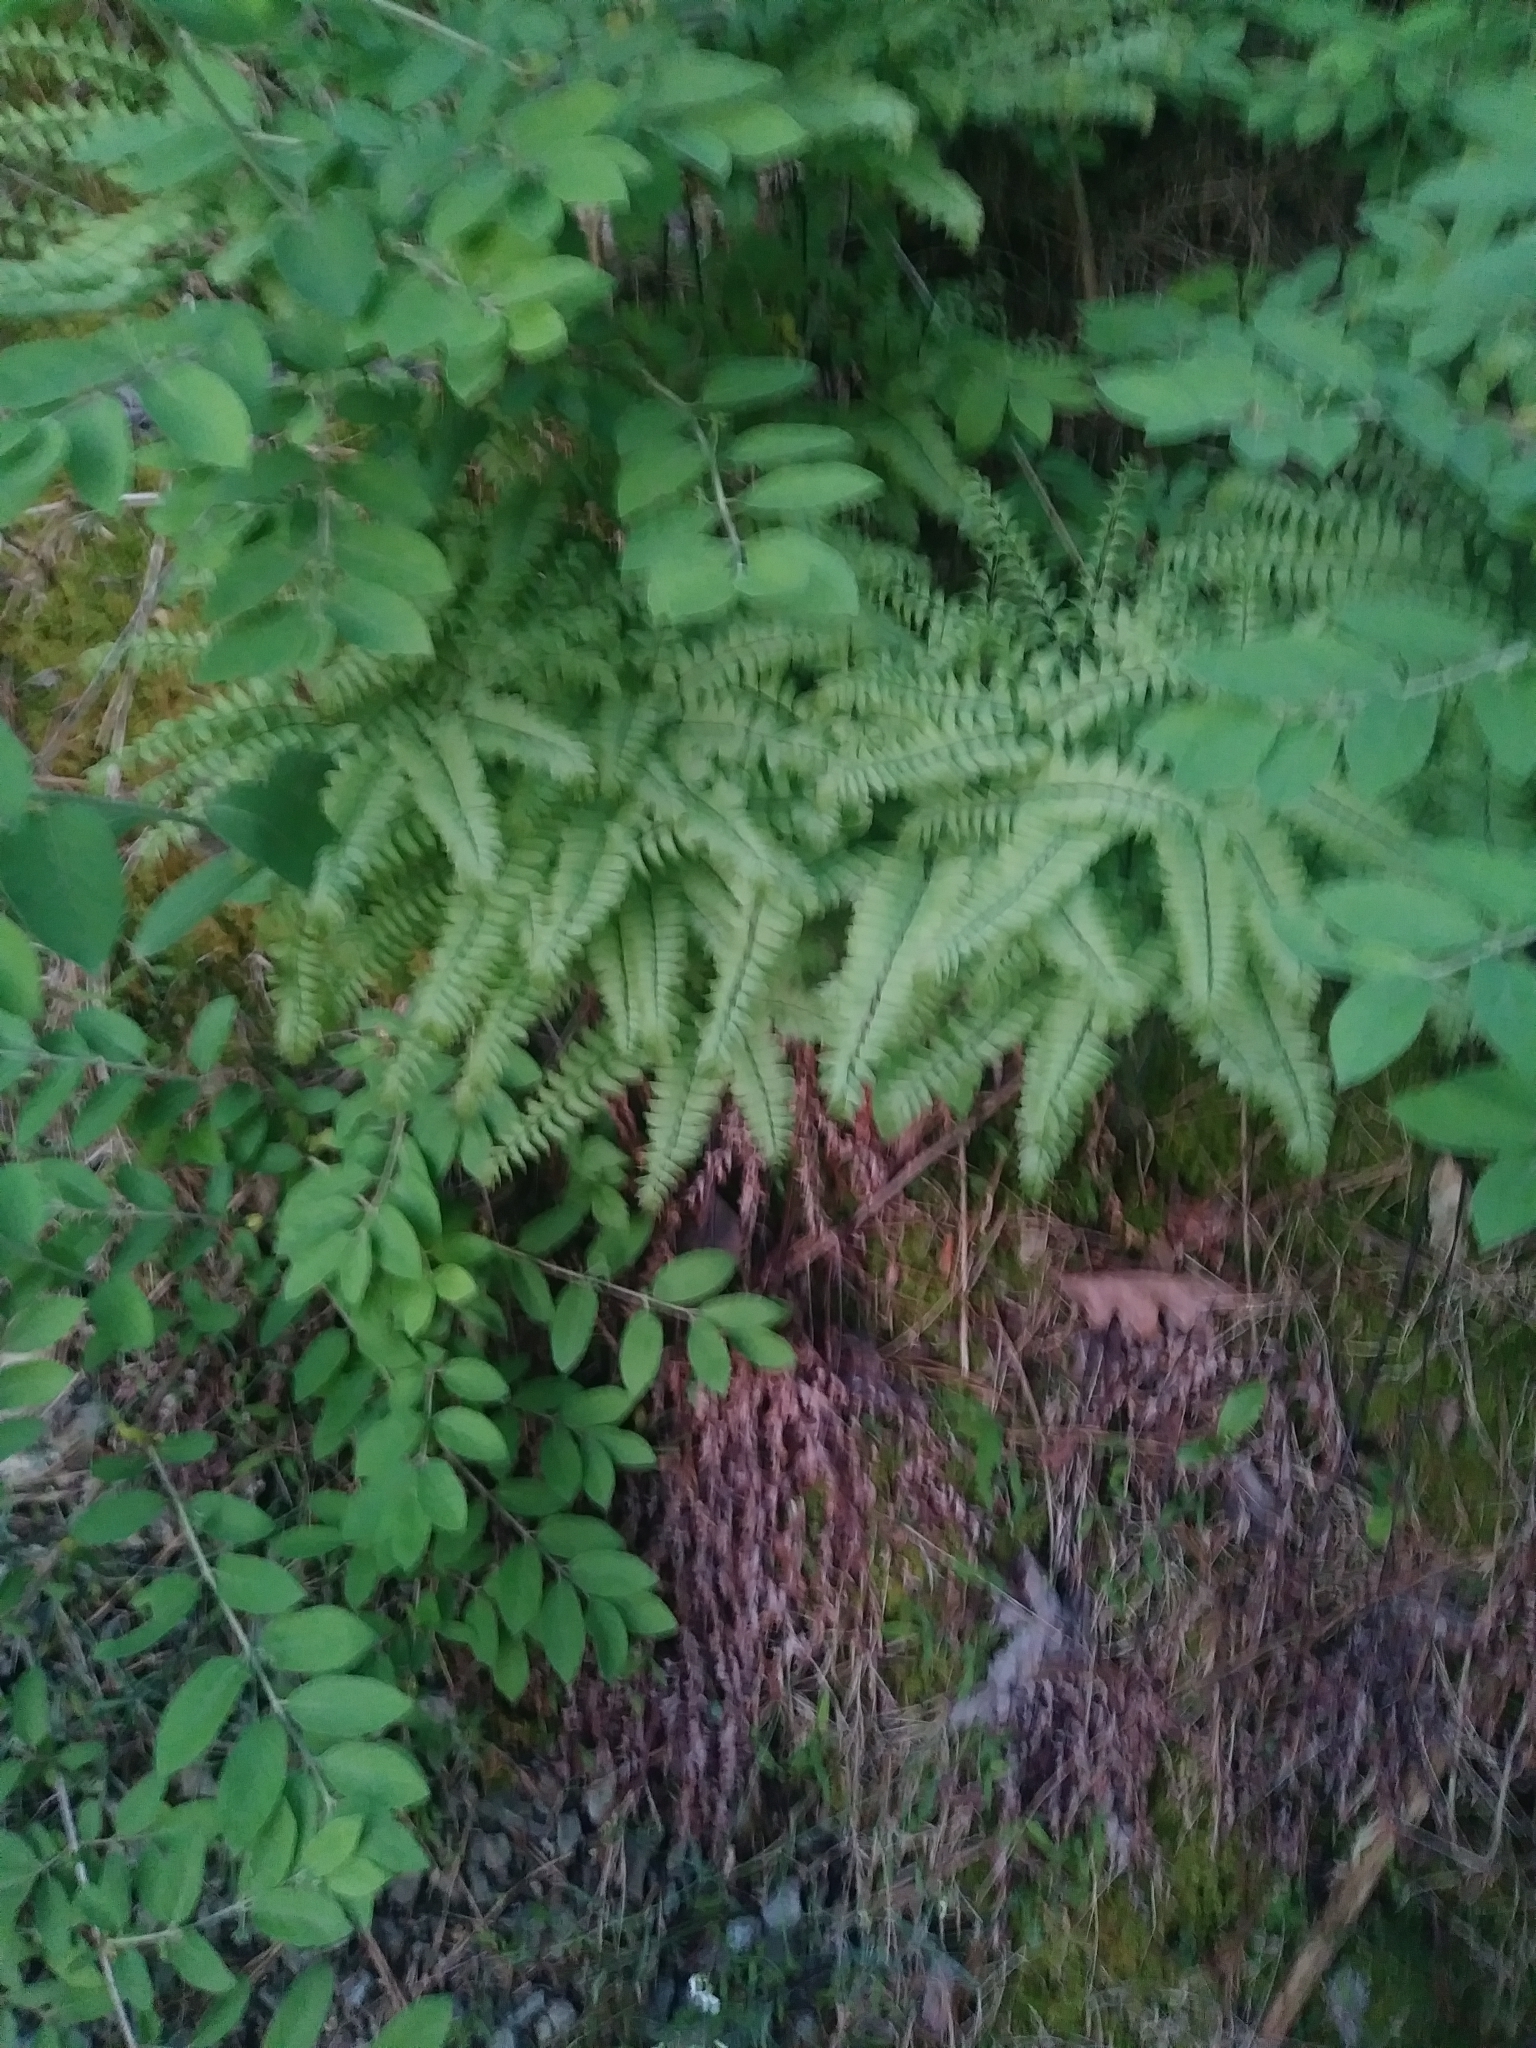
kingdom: Plantae
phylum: Tracheophyta
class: Polypodiopsida
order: Polypodiales
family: Pteridaceae
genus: Adiantum
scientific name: Adiantum pedatum
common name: Five-finger fern
